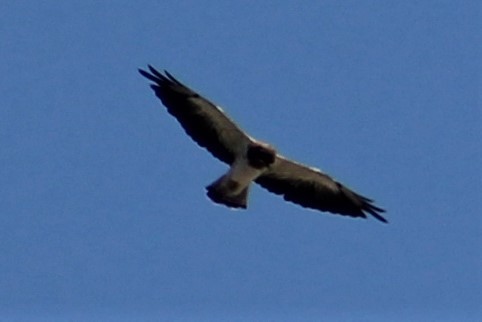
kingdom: Animalia
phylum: Chordata
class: Aves
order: Accipitriformes
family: Accipitridae
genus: Buteo
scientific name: Buteo swainsoni
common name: Swainson's hawk
